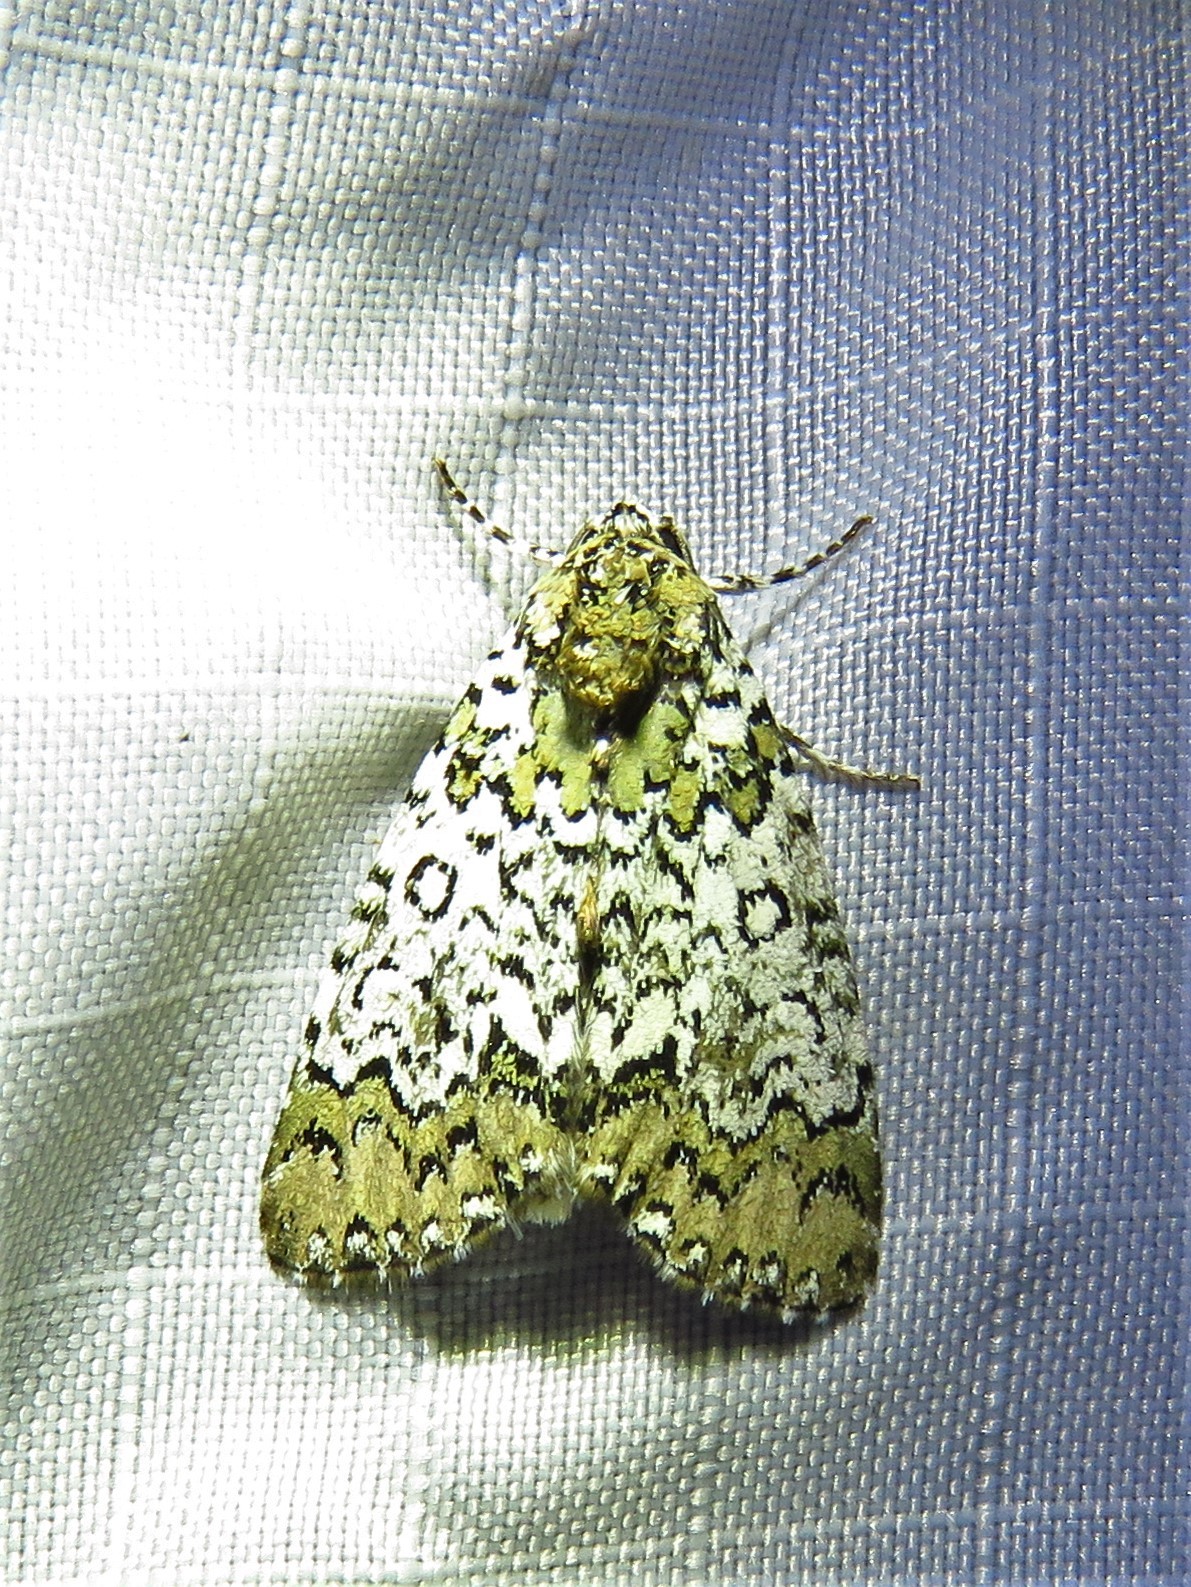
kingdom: Animalia
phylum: Arthropoda
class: Insecta
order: Lepidoptera
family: Noctuidae
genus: Cerma
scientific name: Cerma cora
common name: Bird dropping moth
